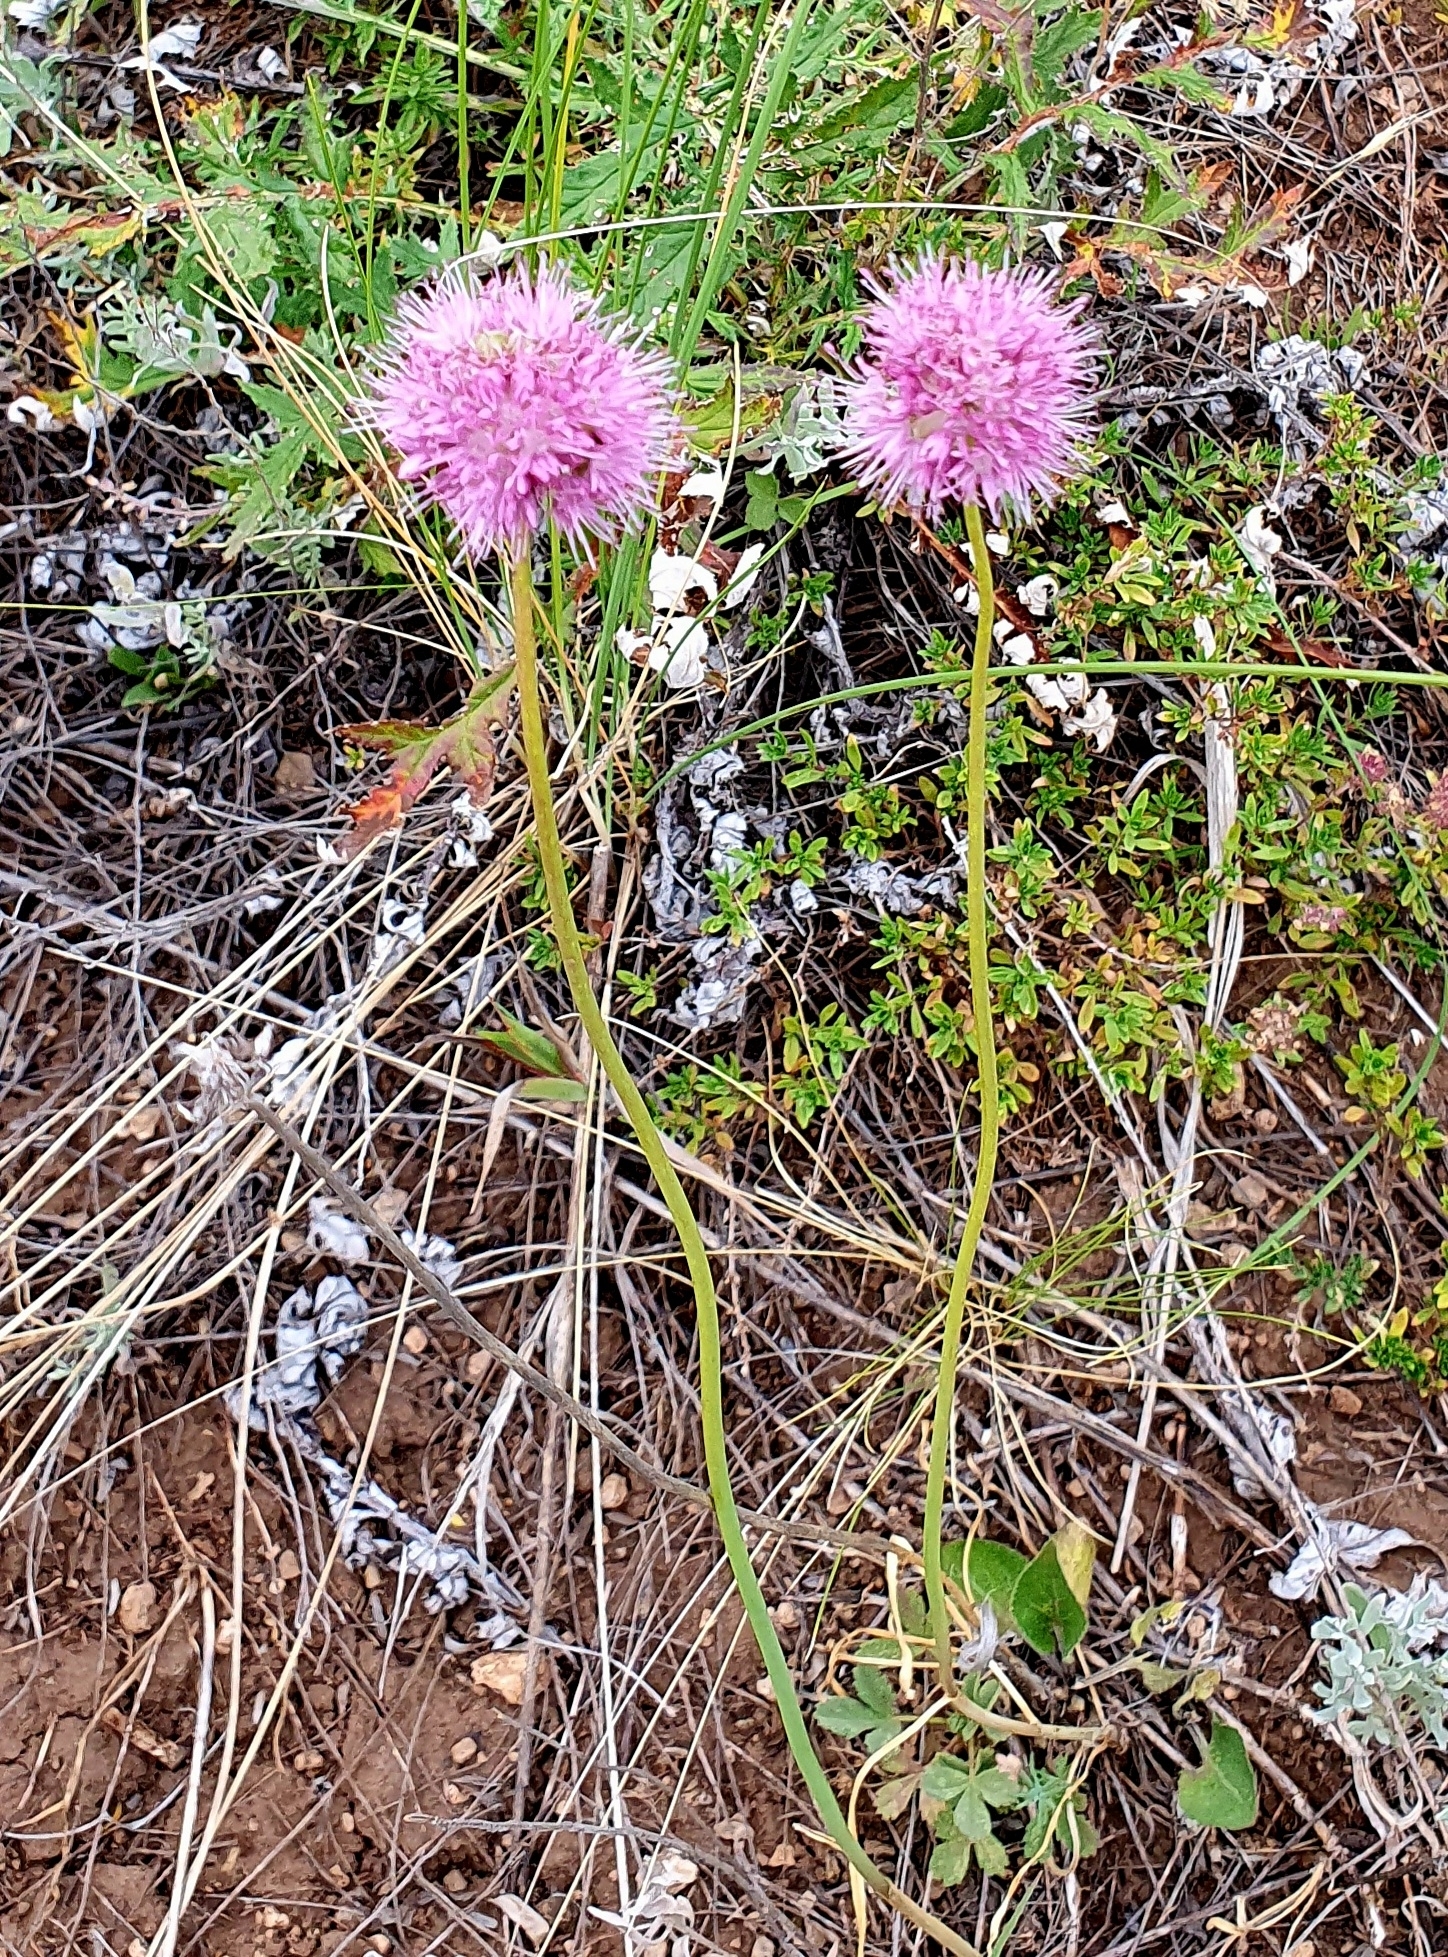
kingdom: Plantae
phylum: Tracheophyta
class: Liliopsida
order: Asparagales
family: Amaryllidaceae
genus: Allium
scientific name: Allium lineare
